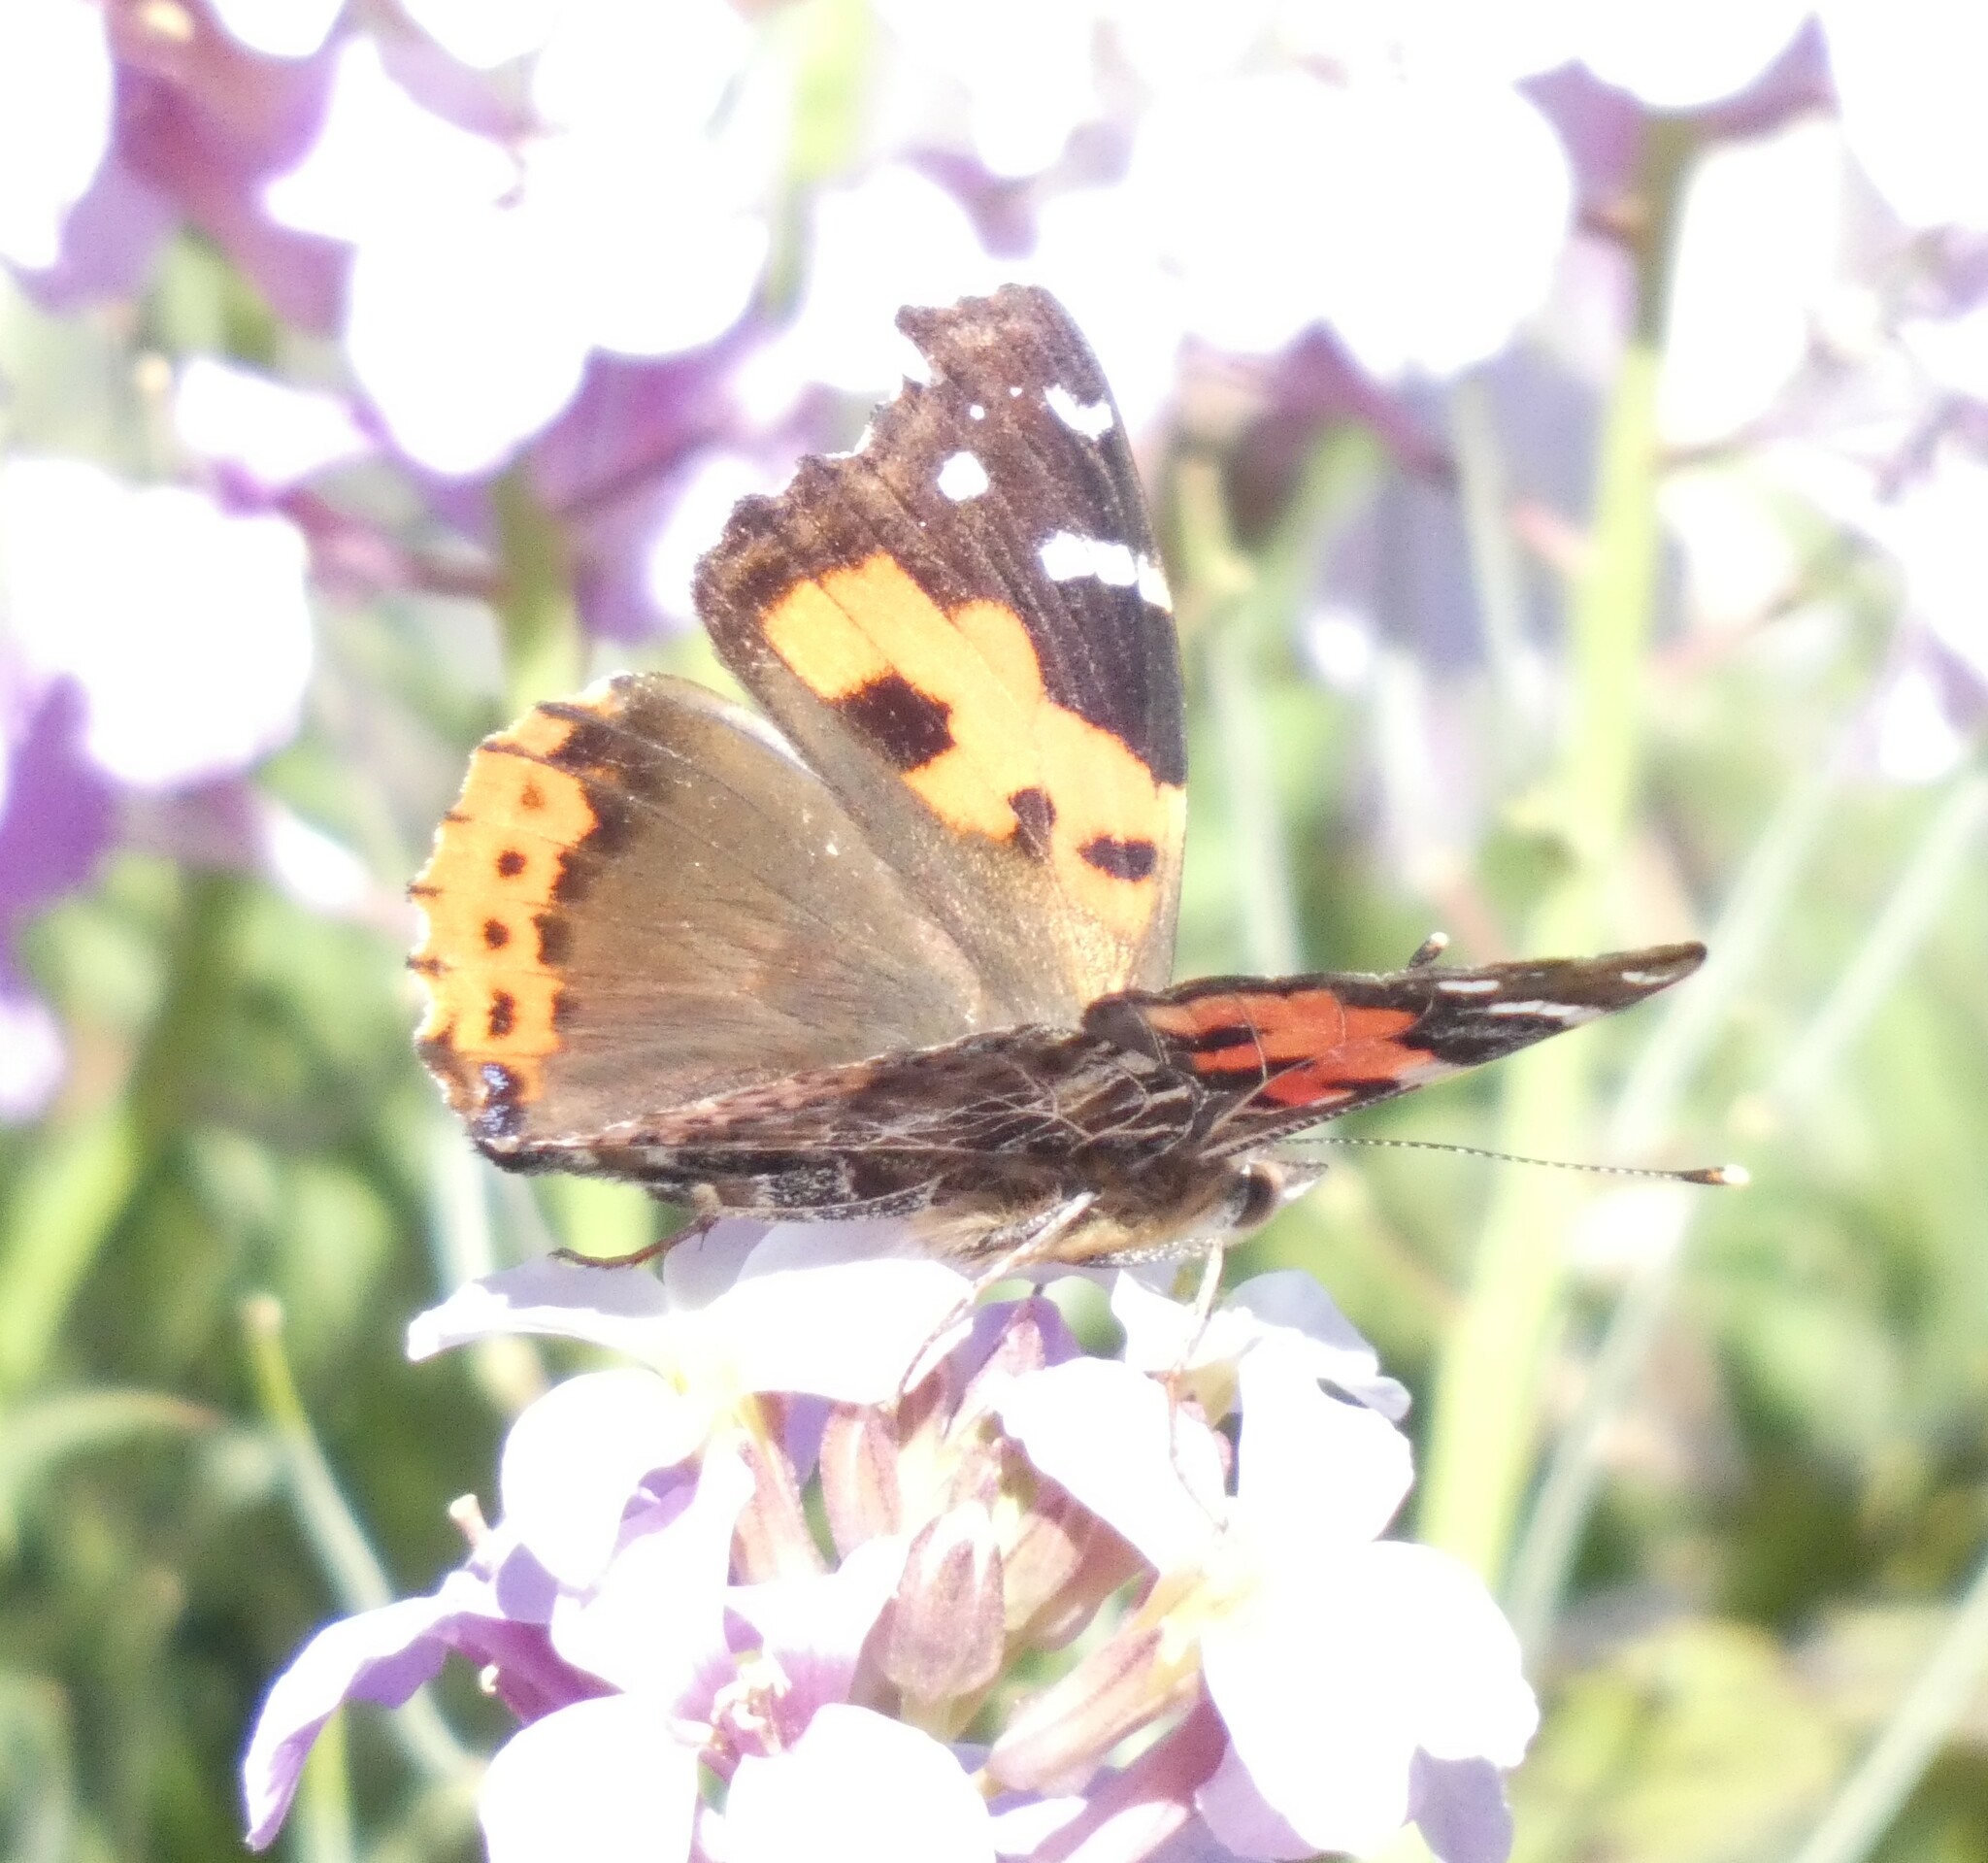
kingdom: Animalia
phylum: Arthropoda
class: Insecta
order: Lepidoptera
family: Nymphalidae
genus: Vanessa
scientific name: Vanessa vulcania
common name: Canary red admiral
